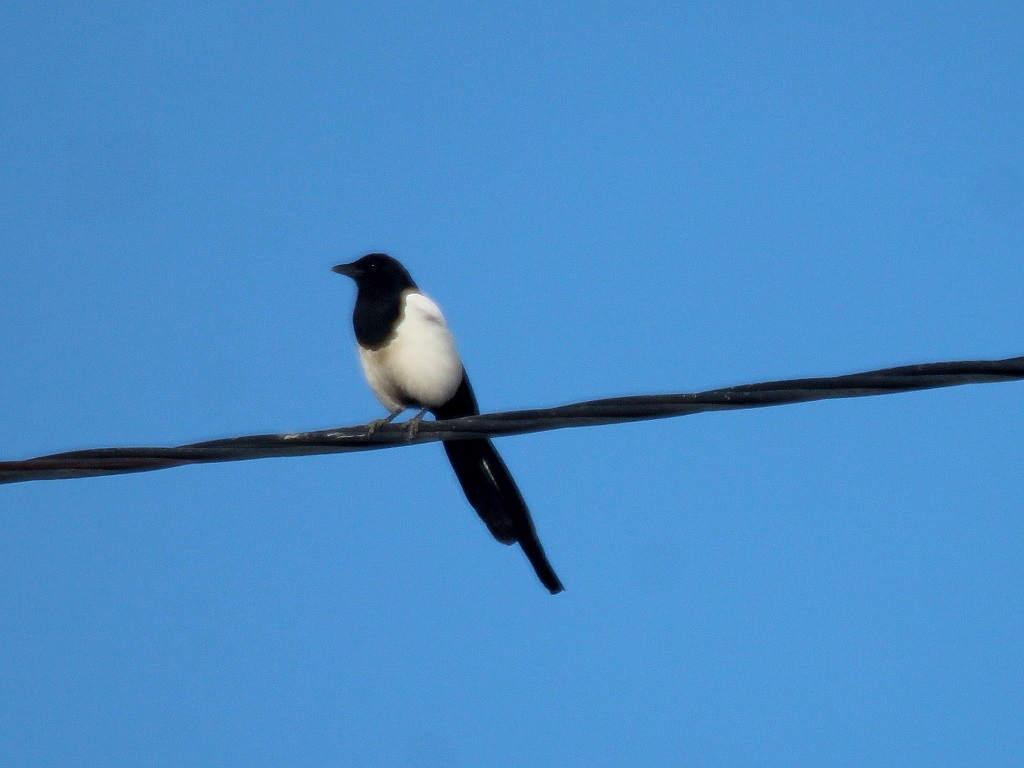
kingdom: Animalia
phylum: Chordata
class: Aves
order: Passeriformes
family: Corvidae
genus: Pica
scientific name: Pica pica
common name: Eurasian magpie
